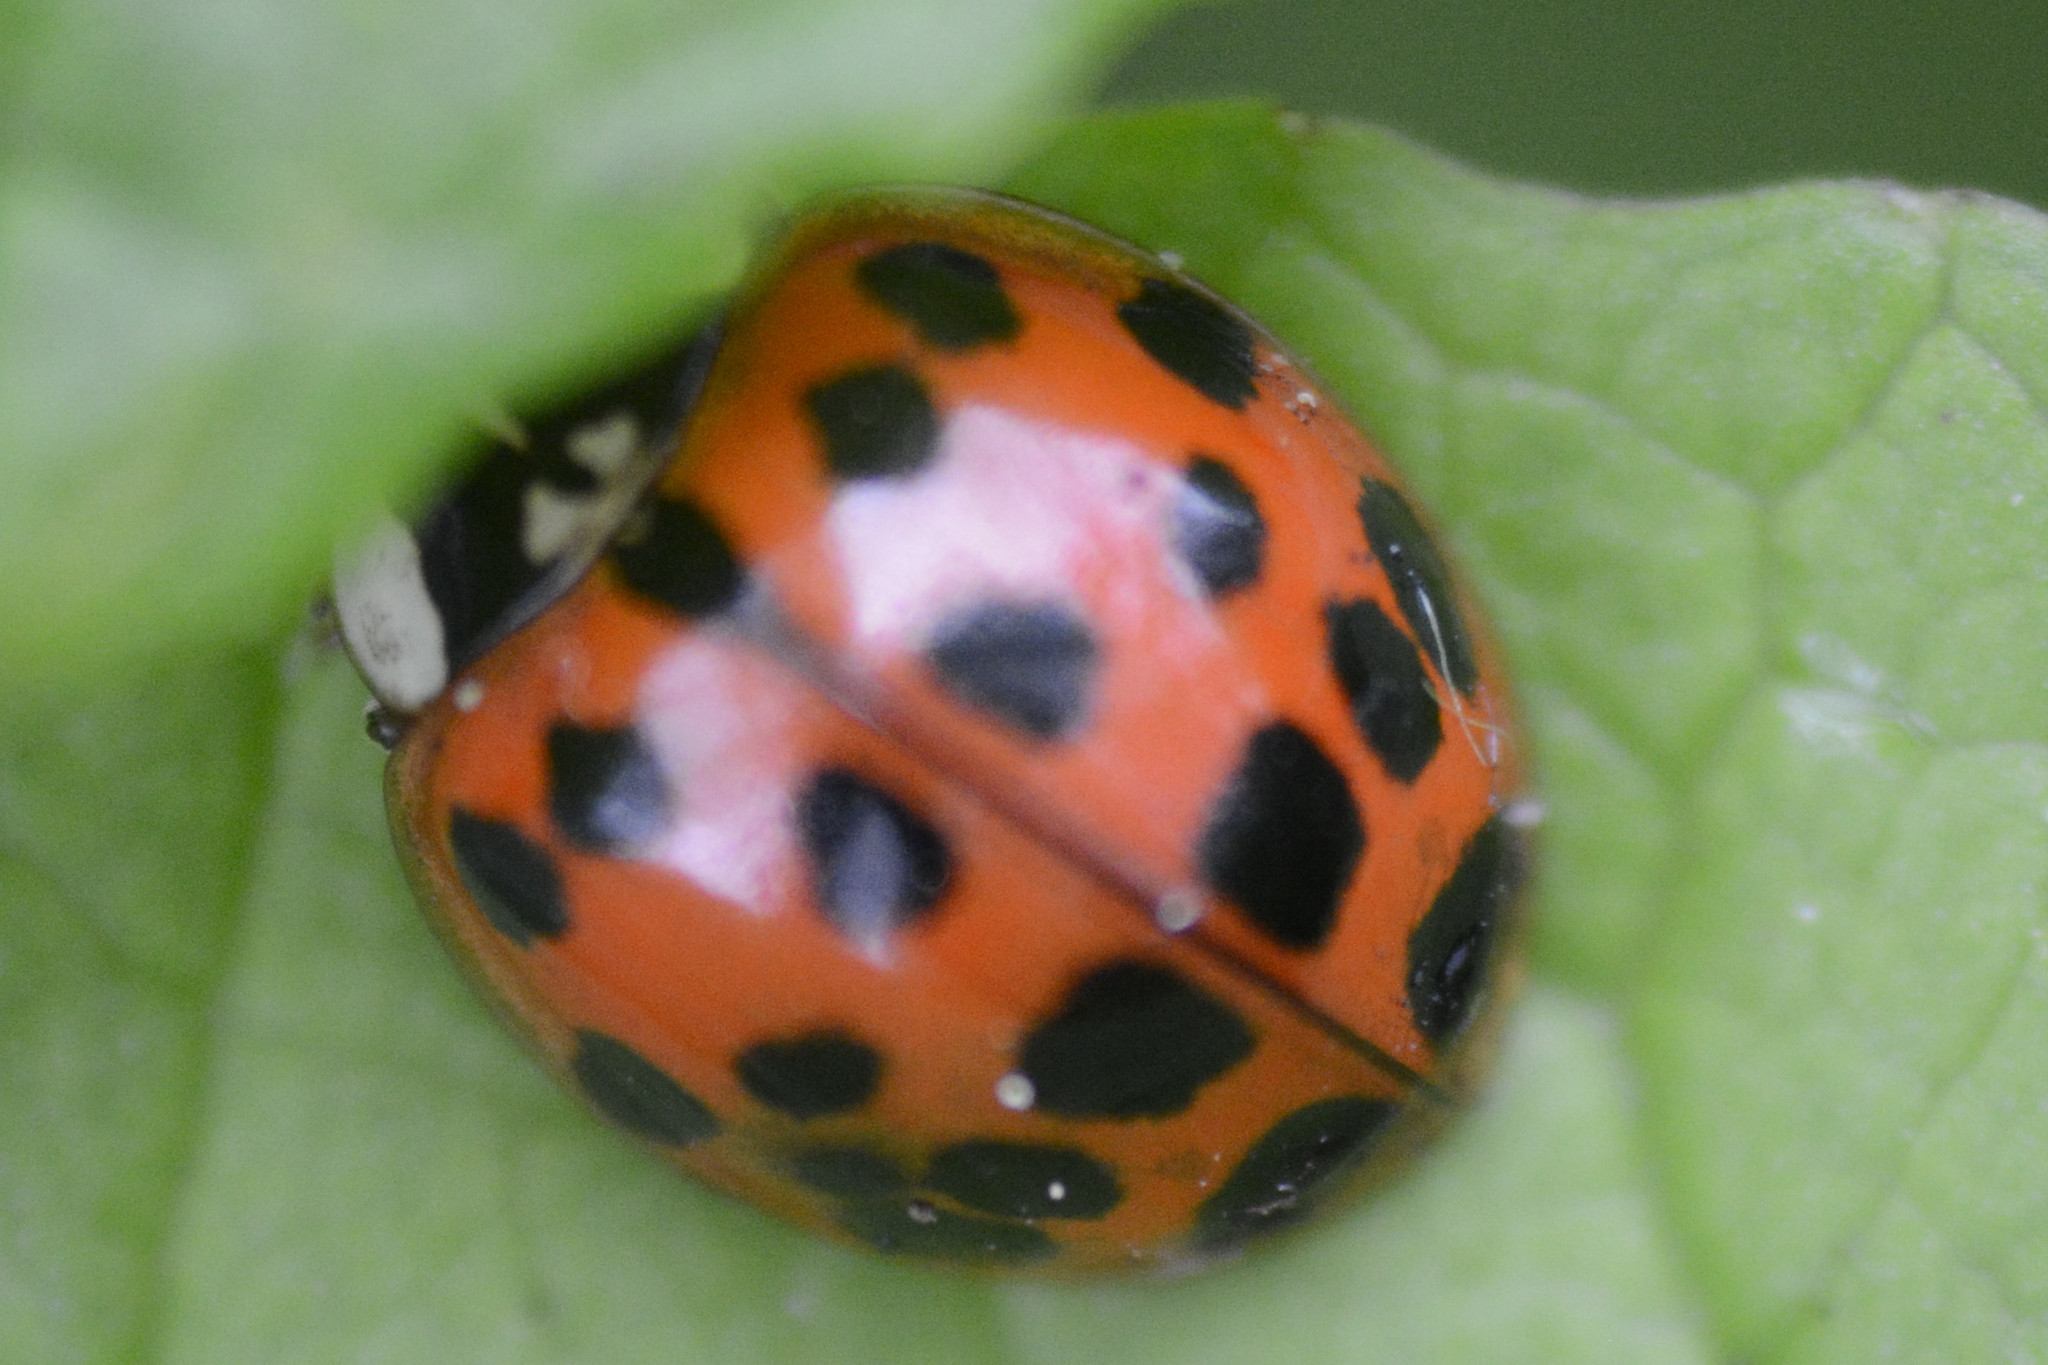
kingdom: Animalia
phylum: Arthropoda
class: Insecta
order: Coleoptera
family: Coccinellidae
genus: Harmonia
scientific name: Harmonia axyridis
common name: Harlequin ladybird
